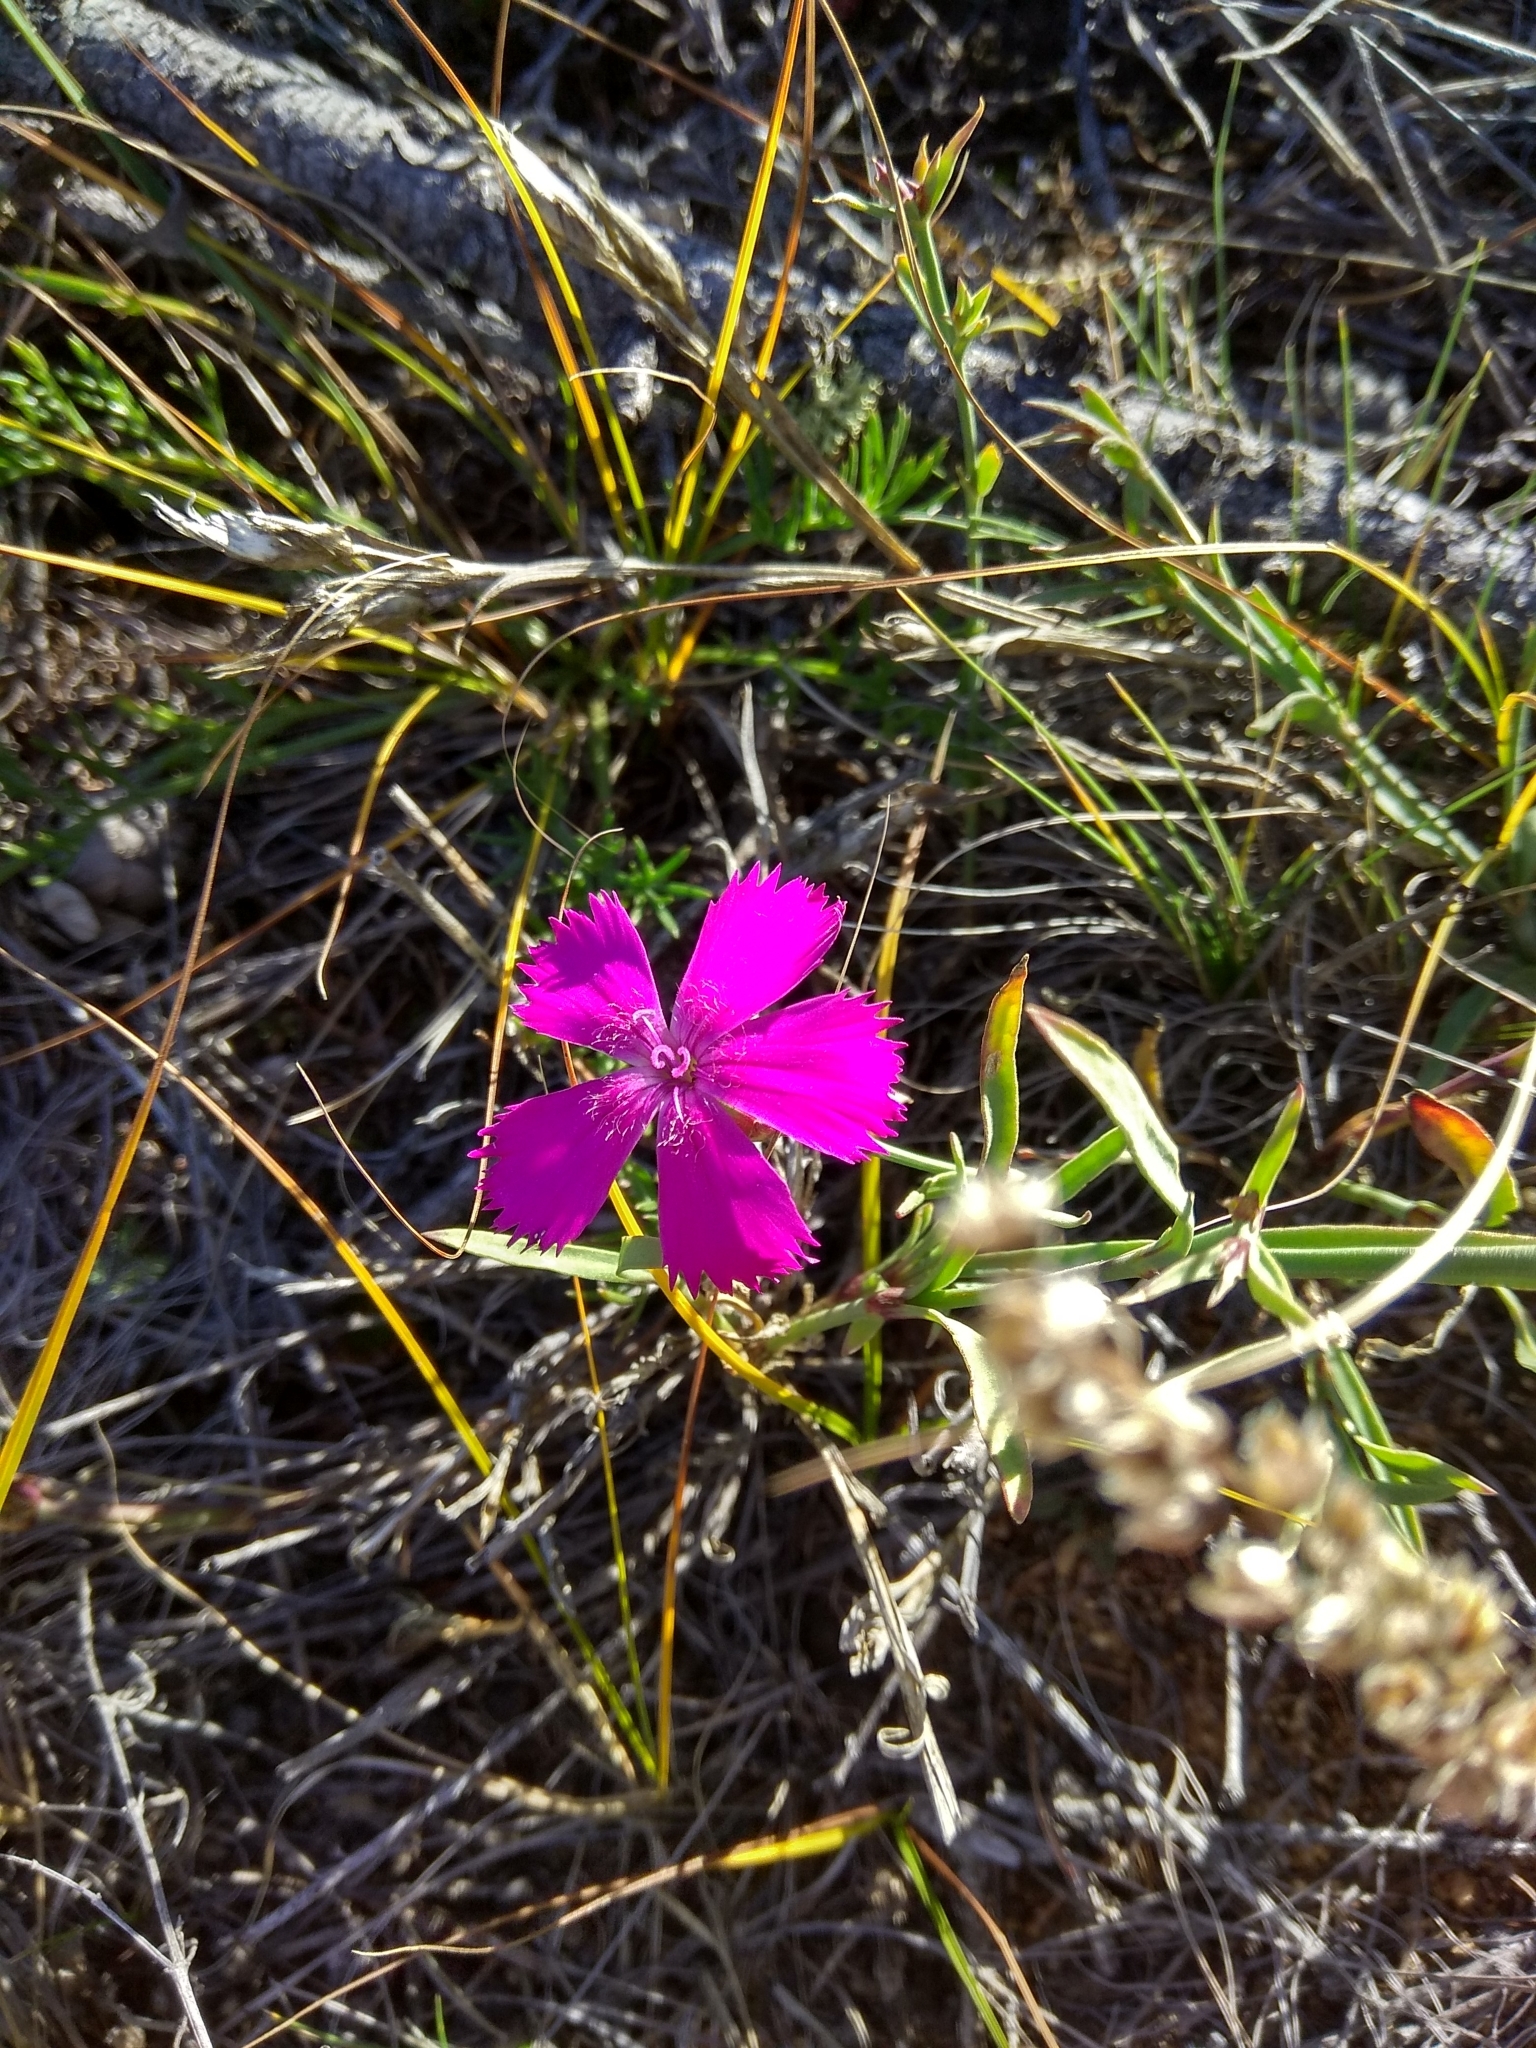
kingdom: Plantae
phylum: Tracheophyta
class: Magnoliopsida
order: Caryophyllales
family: Caryophyllaceae
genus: Dianthus
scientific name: Dianthus chinensis
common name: Rainbow pink
